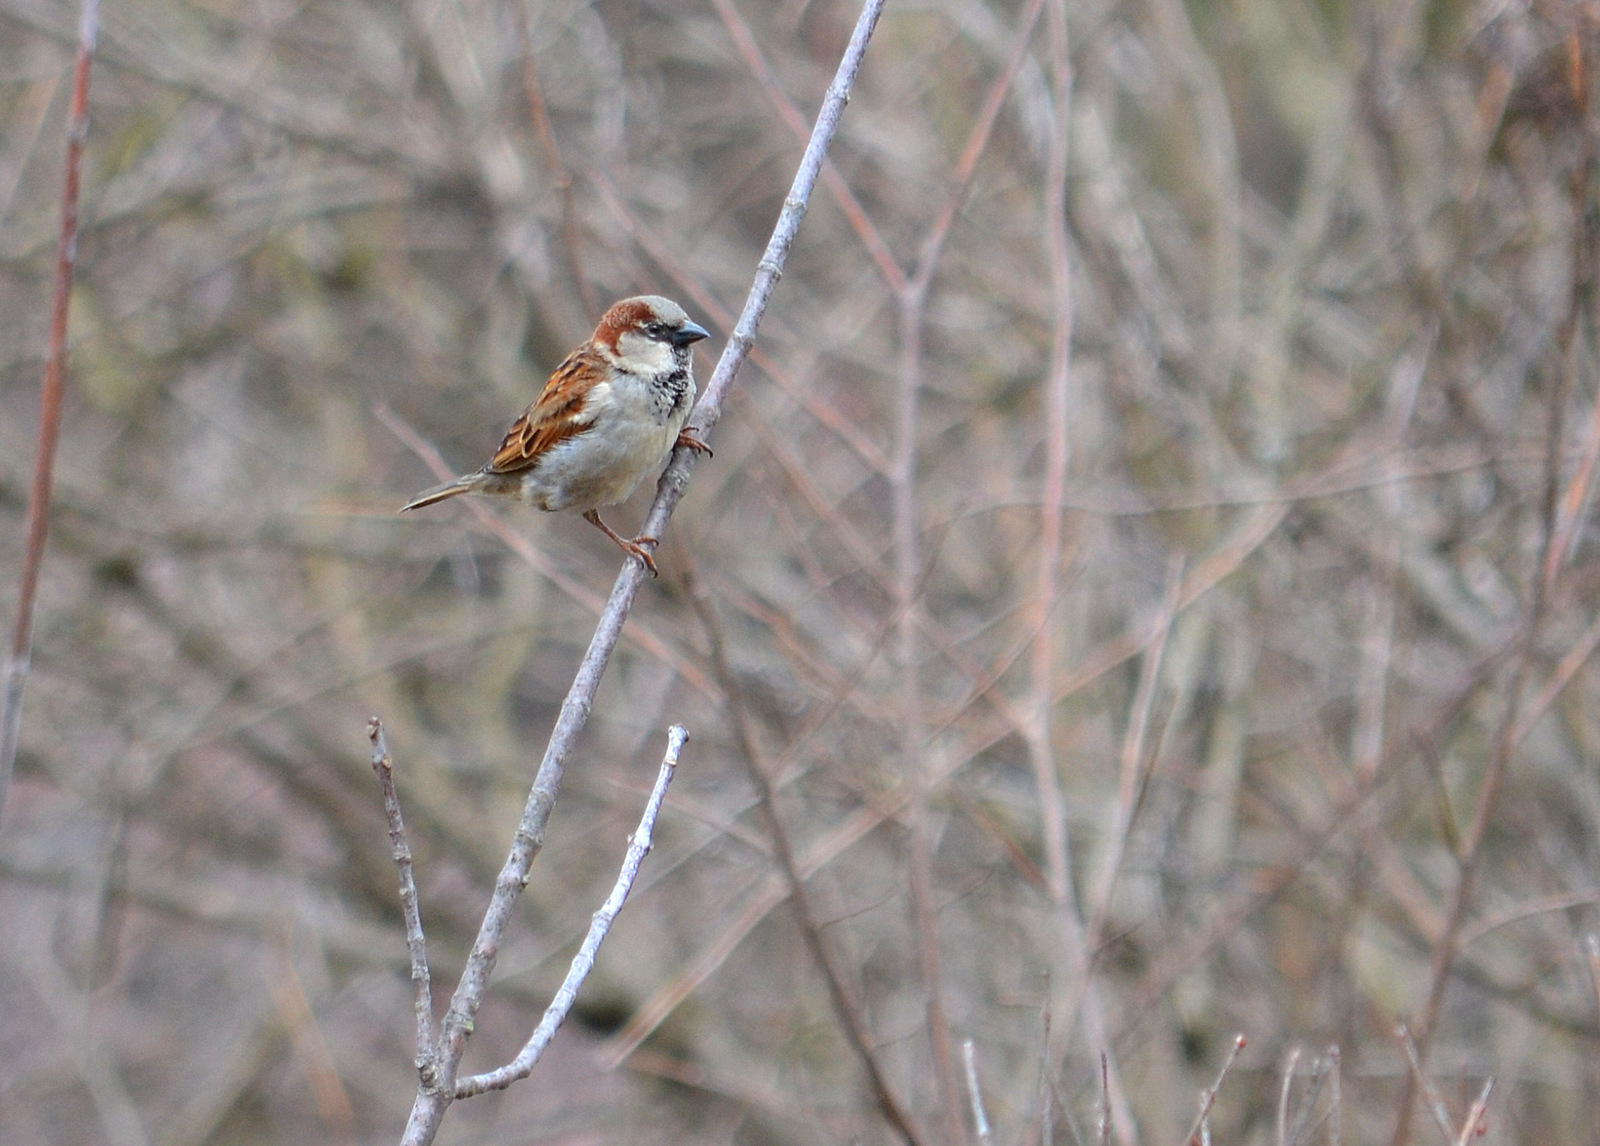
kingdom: Animalia
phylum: Chordata
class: Aves
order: Passeriformes
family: Passeridae
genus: Passer
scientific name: Passer domesticus
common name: House sparrow
